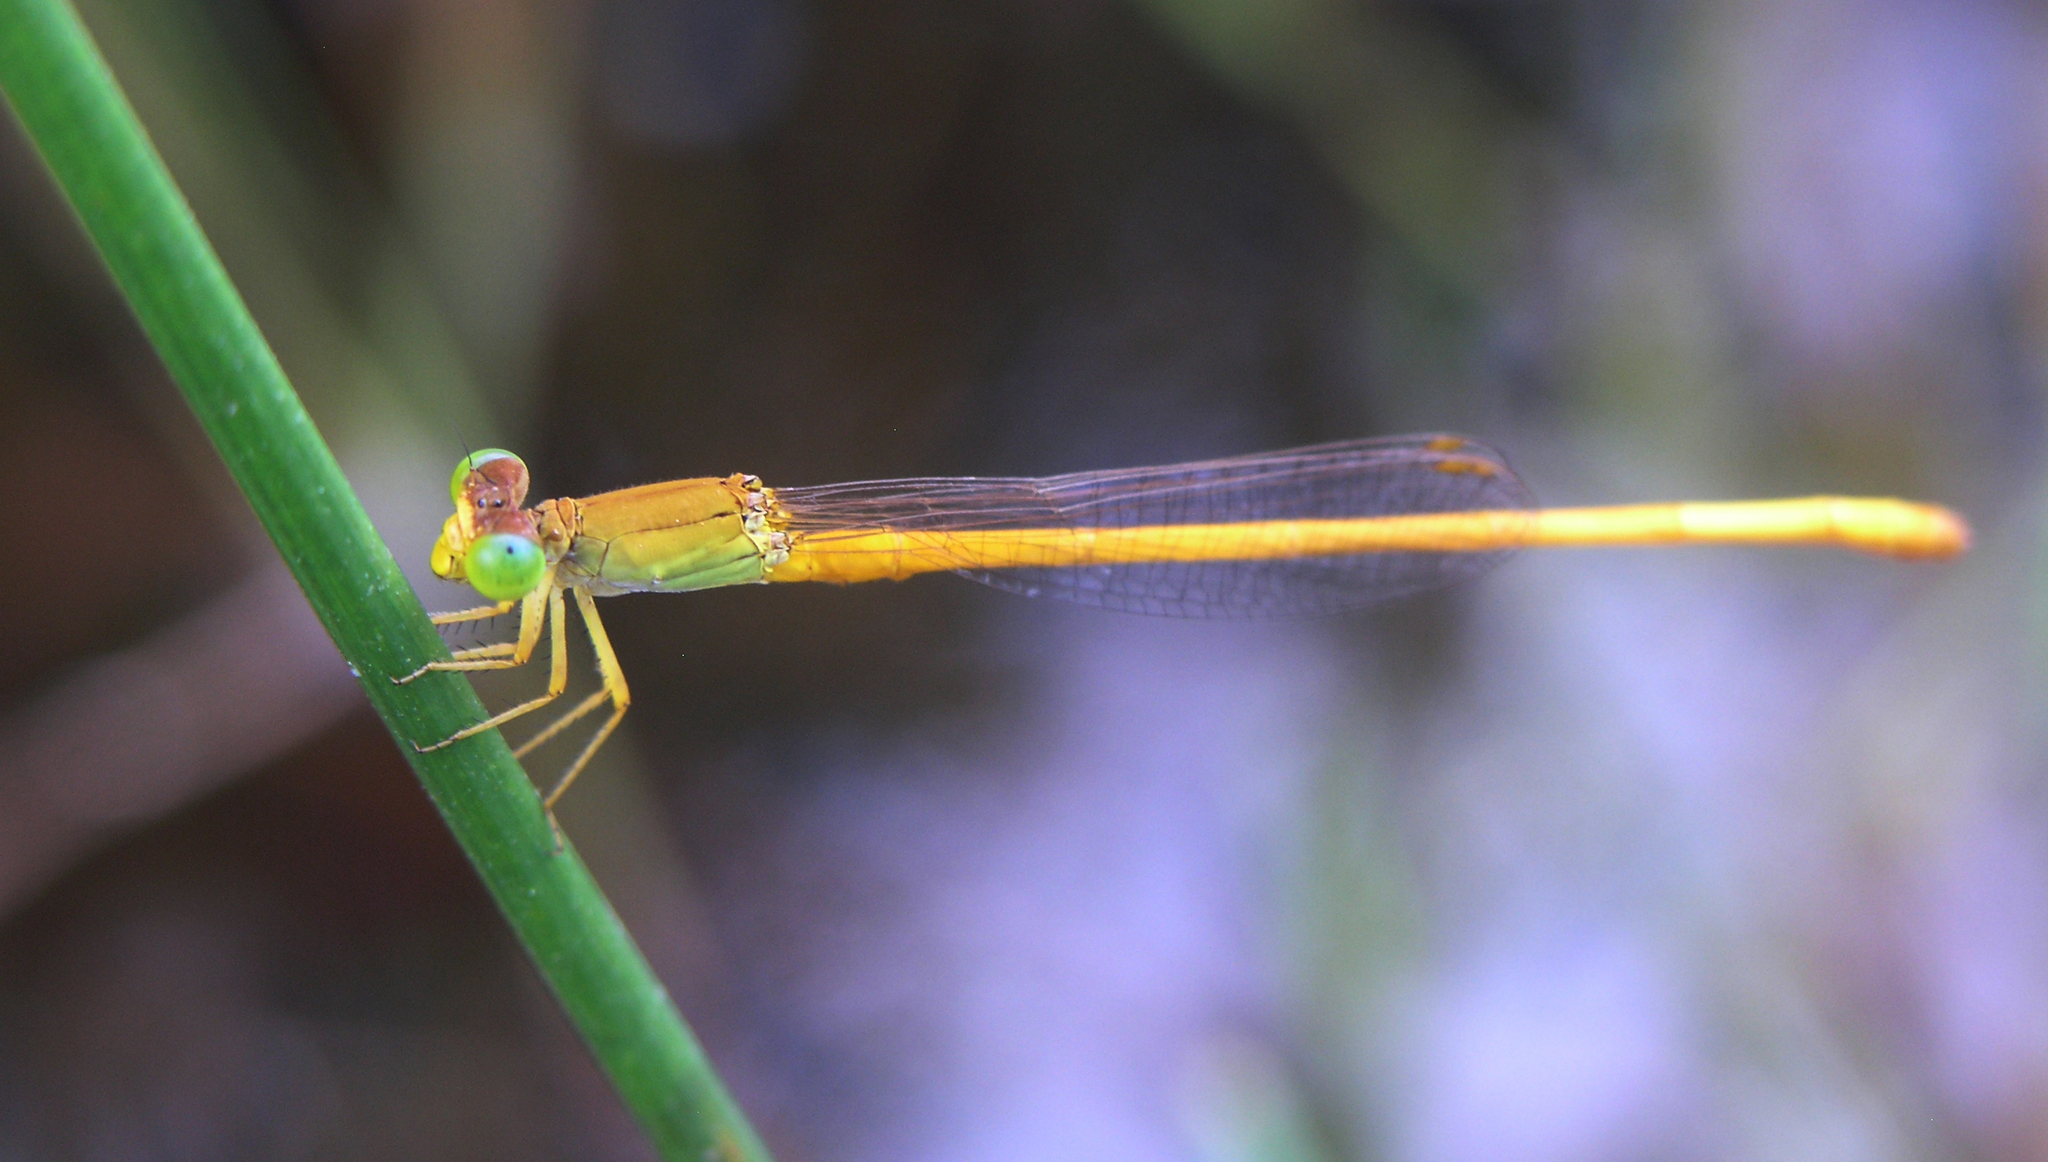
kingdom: Animalia
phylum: Arthropoda
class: Insecta
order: Odonata
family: Coenagrionidae
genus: Ceriagrion
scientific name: Ceriagrion calamineum
